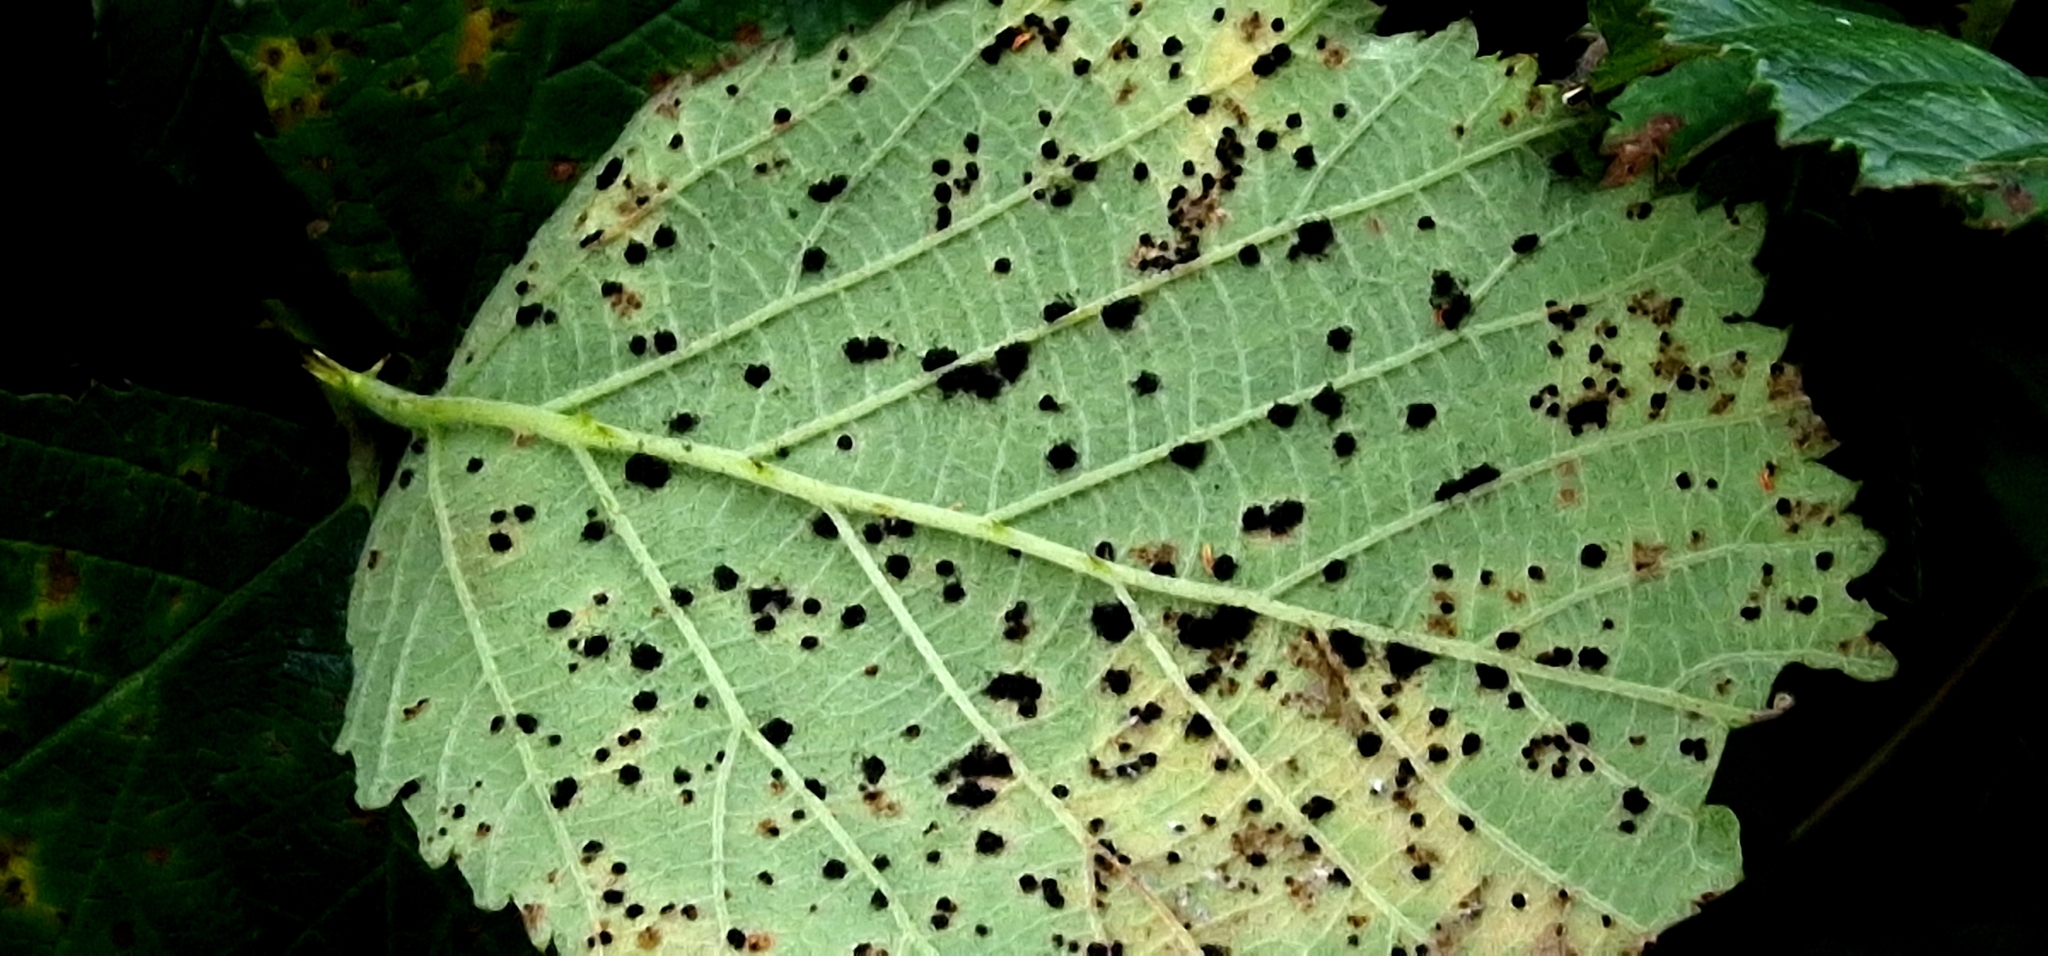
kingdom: Fungi
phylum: Basidiomycota
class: Pucciniomycetes
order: Pucciniales
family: Phragmidiaceae
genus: Phragmidium
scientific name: Phragmidium violaceum
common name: Violet bramble rust
